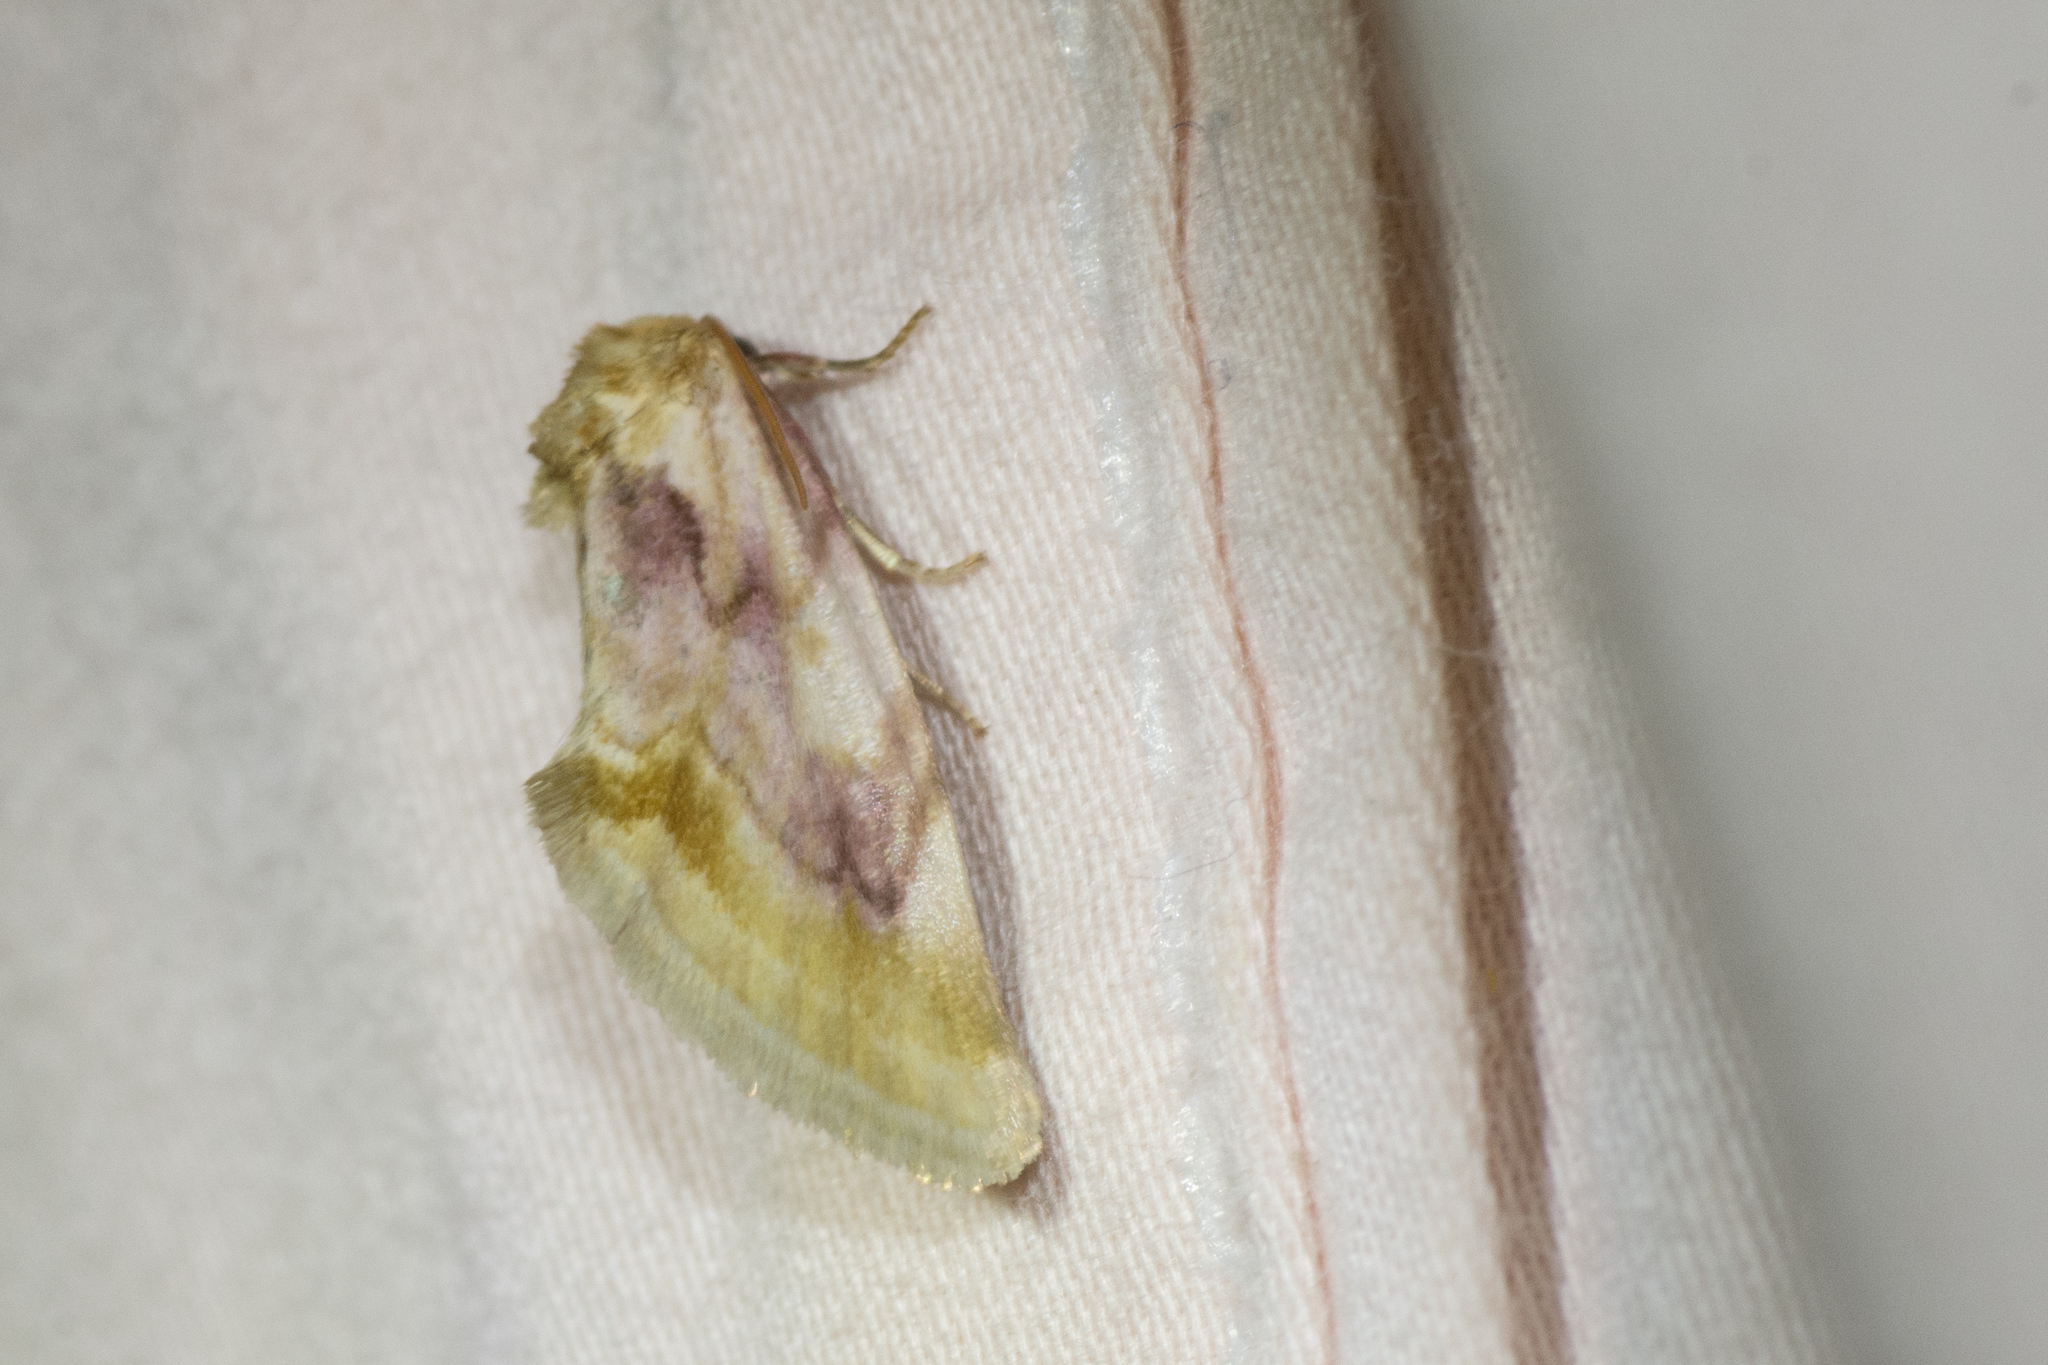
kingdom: Animalia
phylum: Arthropoda
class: Insecta
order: Lepidoptera
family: Noctuidae
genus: Chamaeclea
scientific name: Chamaeclea pernana
